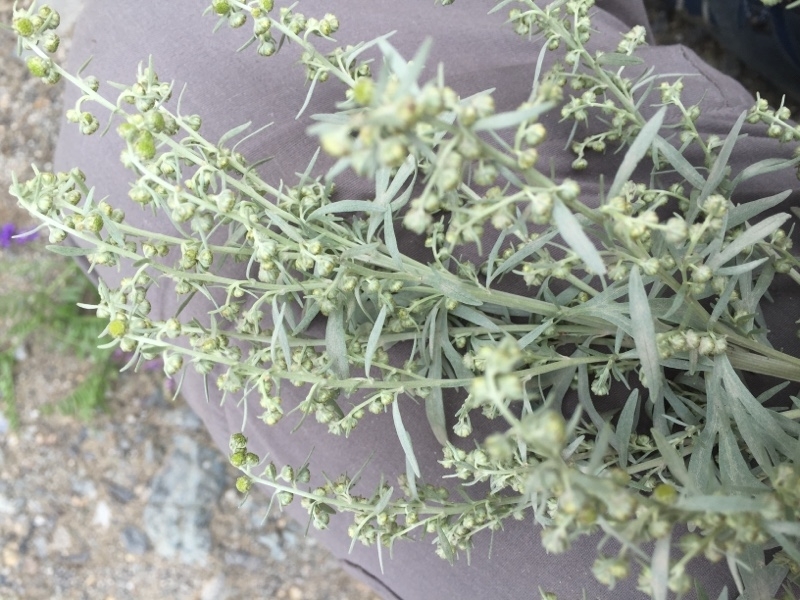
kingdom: Plantae
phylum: Tracheophyta
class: Magnoliopsida
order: Asterales
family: Asteraceae
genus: Artemisia
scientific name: Artemisia absinthium
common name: Wormwood
